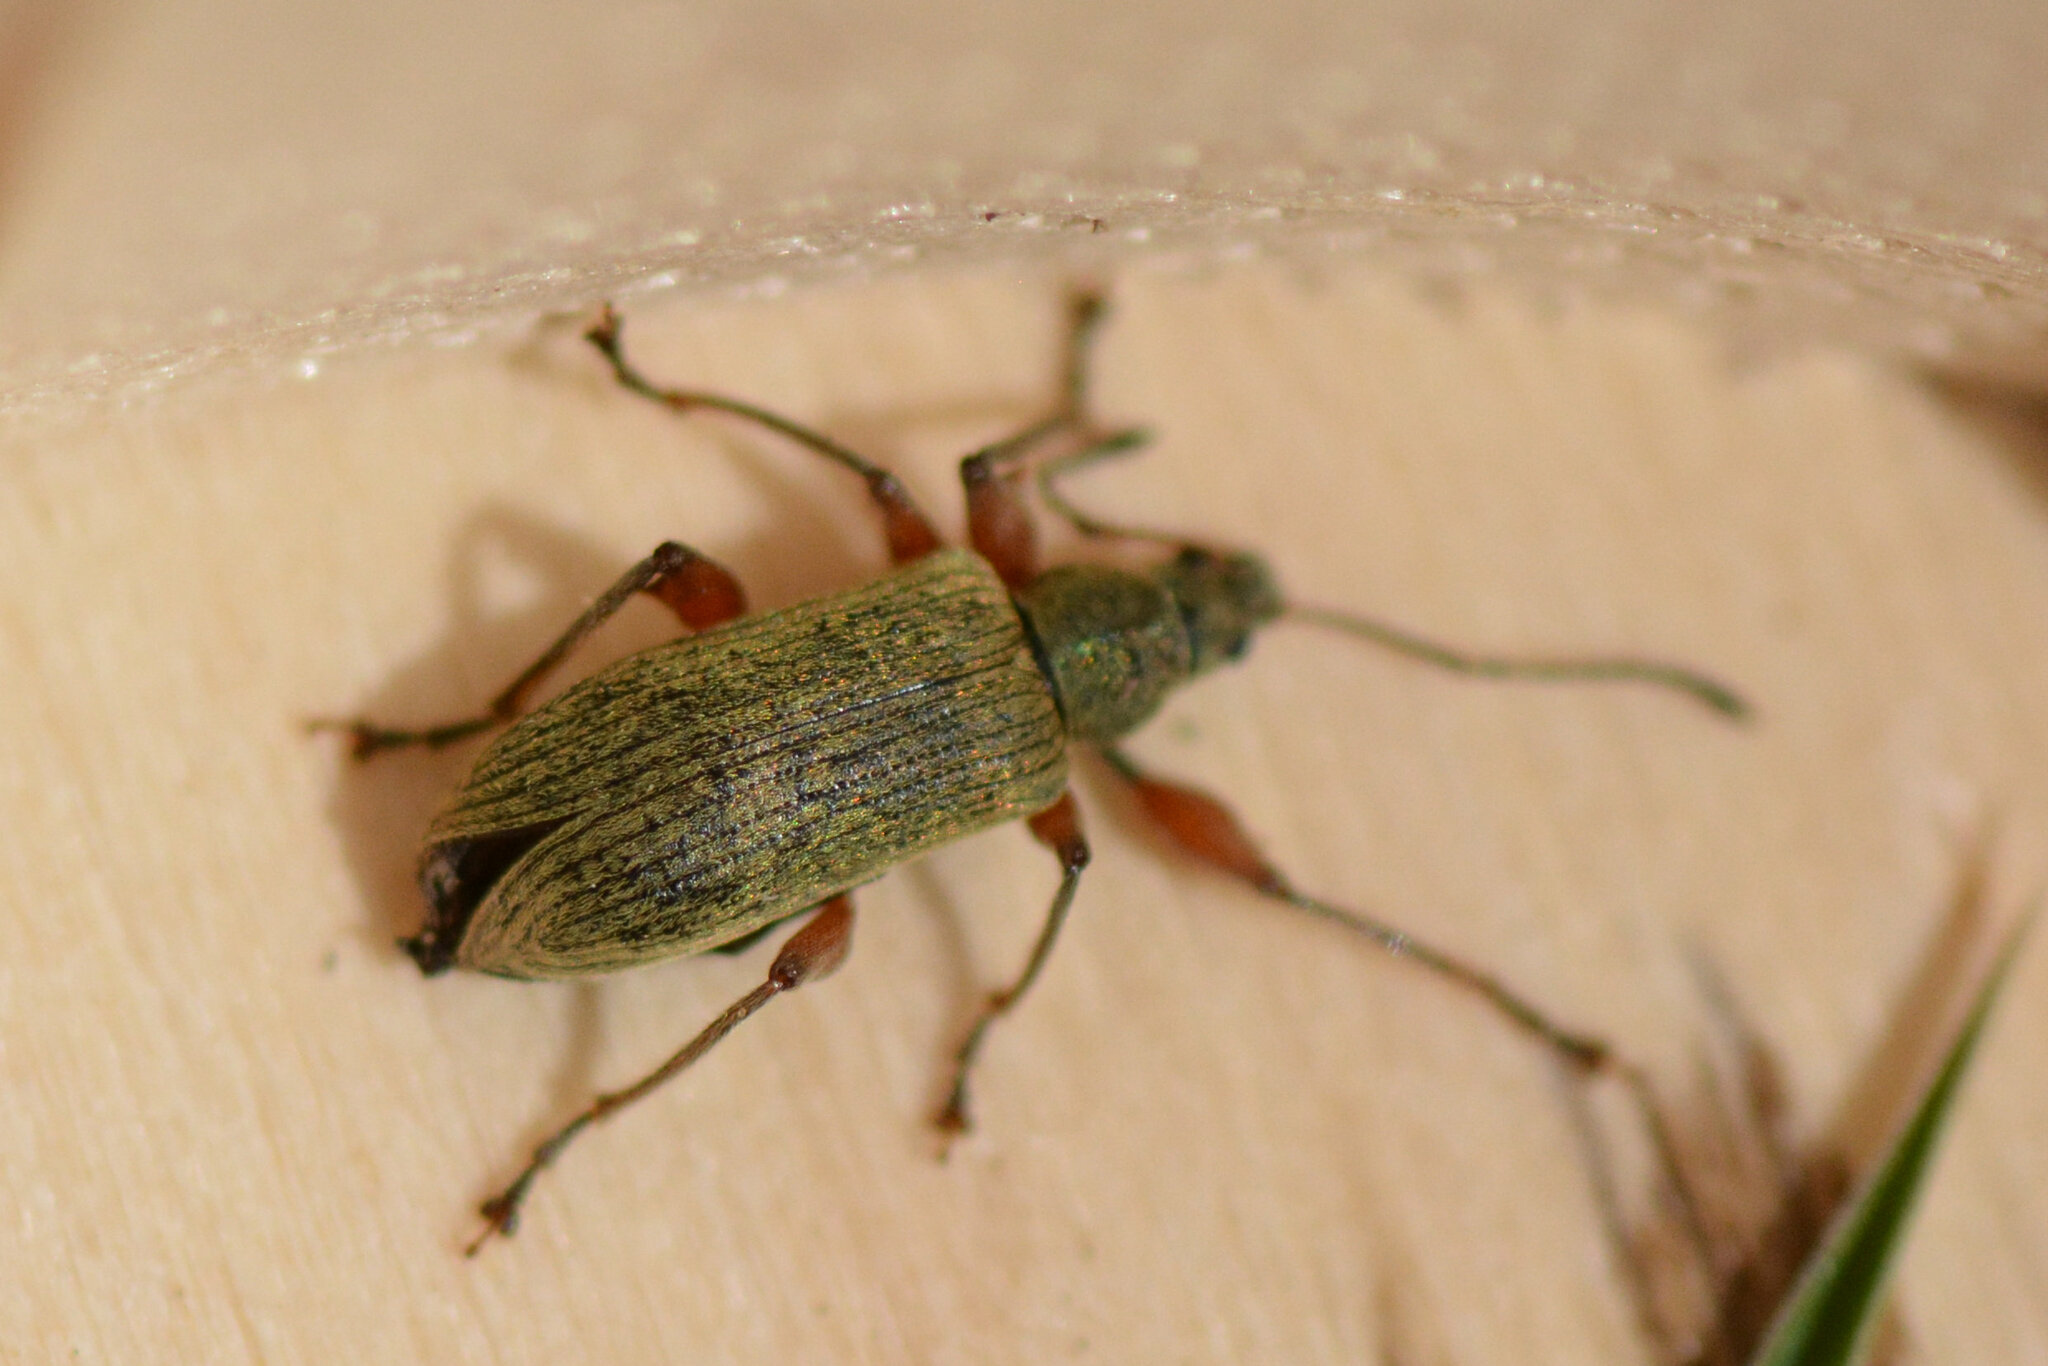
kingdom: Animalia
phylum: Arthropoda
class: Insecta
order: Coleoptera
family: Curculionidae
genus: Phyllobius
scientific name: Phyllobius glaucus
